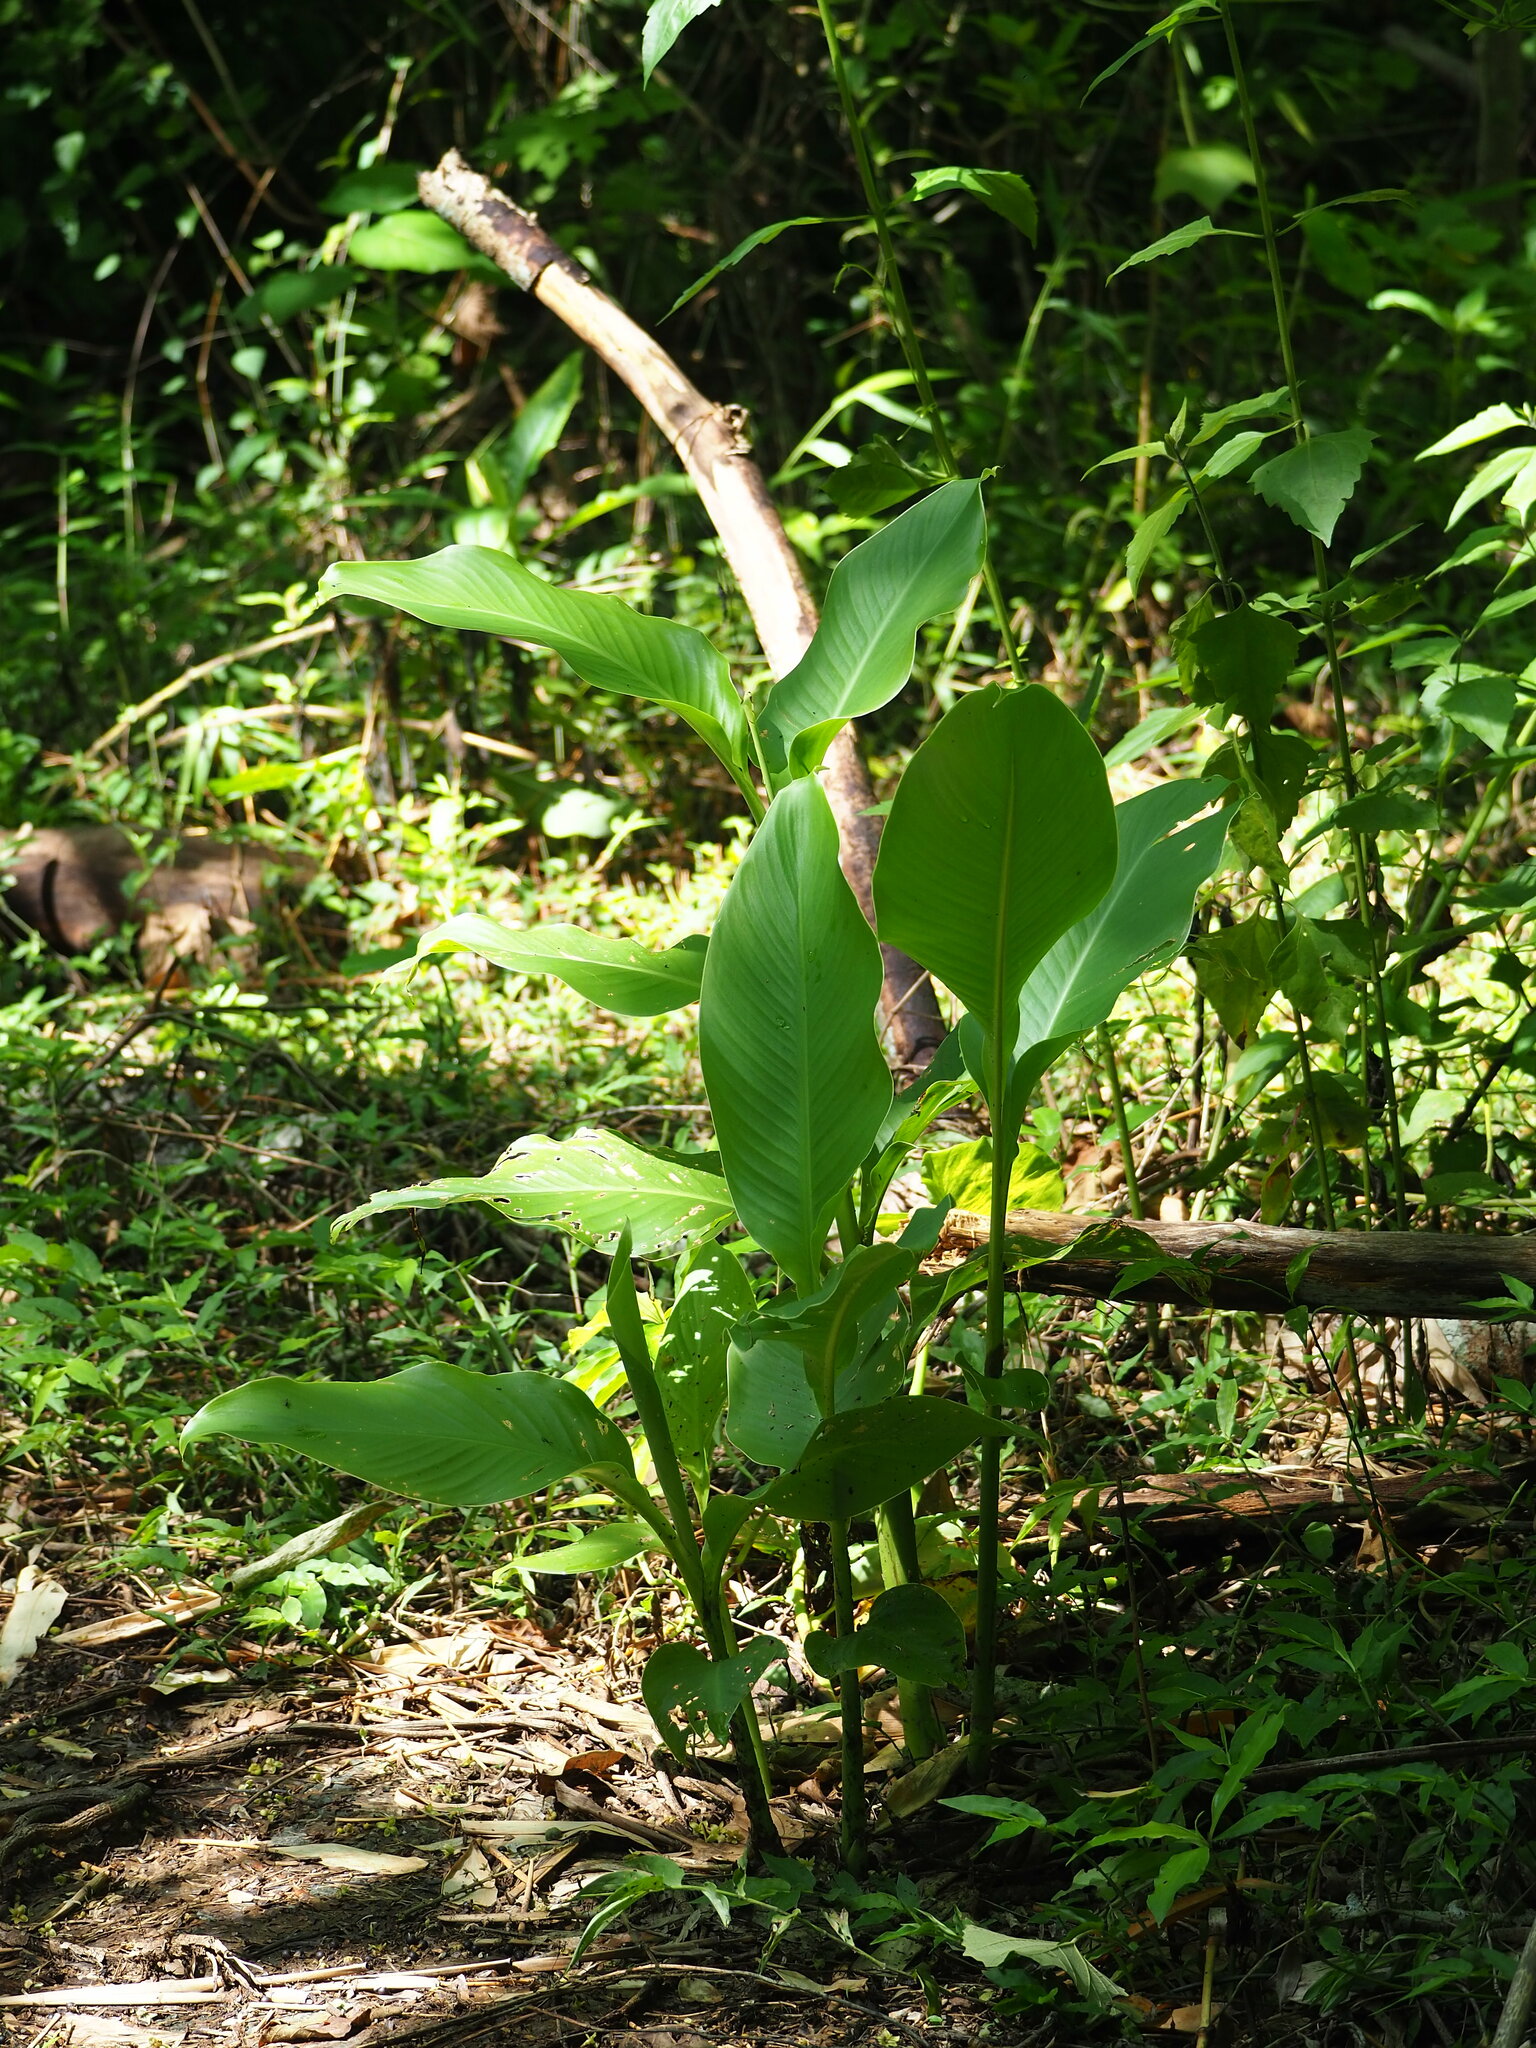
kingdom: Plantae
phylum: Tracheophyta
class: Liliopsida
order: Zingiberales
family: Cannaceae
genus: Canna
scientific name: Canna indica
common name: Indian shot
